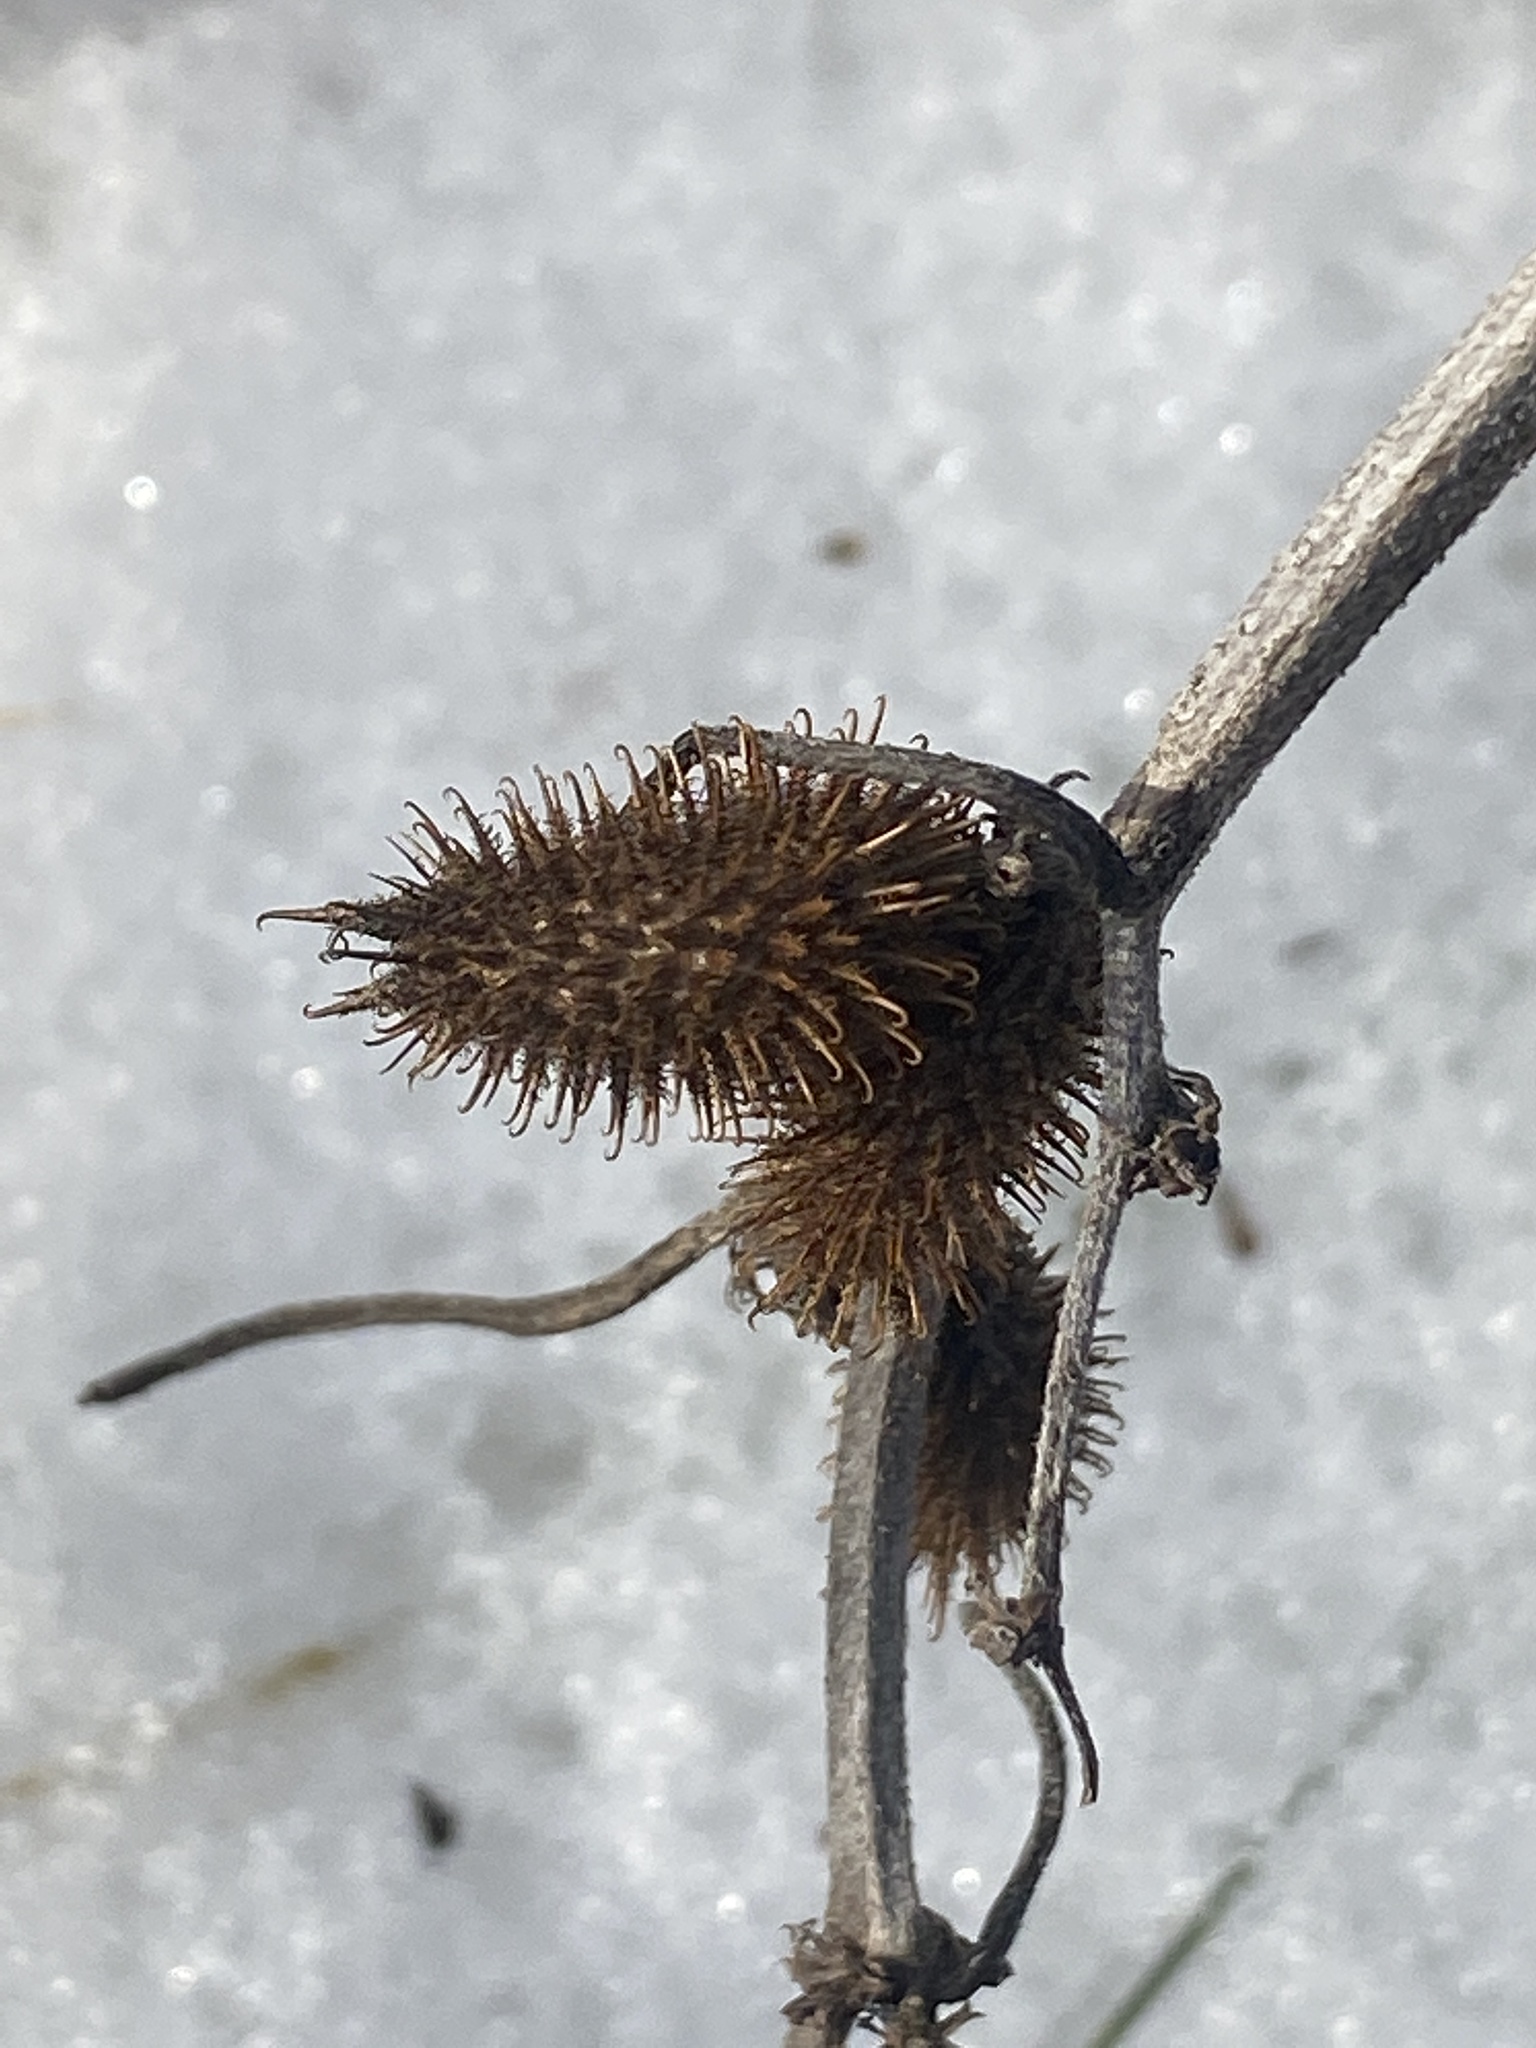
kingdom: Plantae
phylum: Tracheophyta
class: Magnoliopsida
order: Asterales
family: Asteraceae
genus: Xanthium
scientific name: Xanthium strumarium
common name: Rough cocklebur
